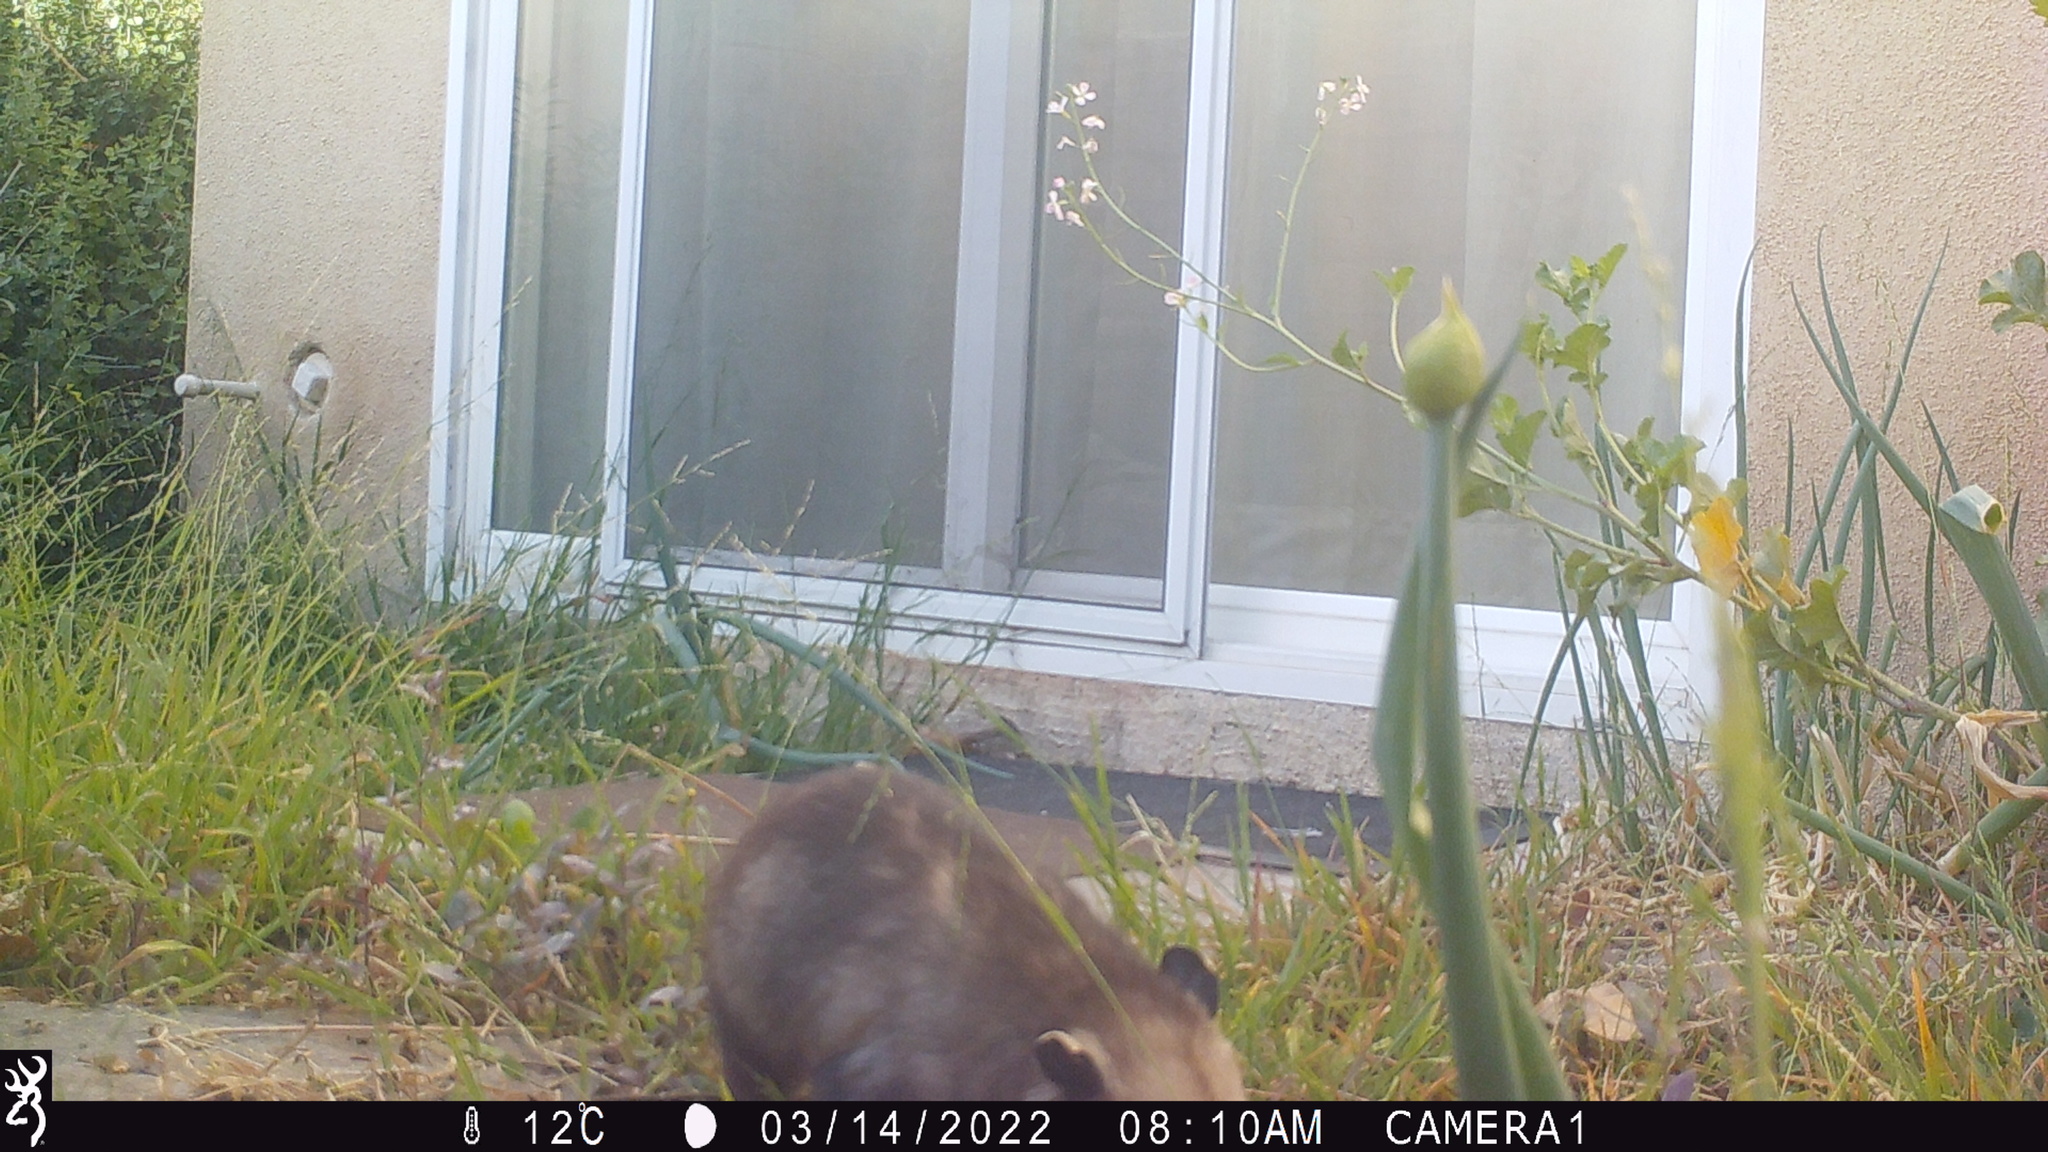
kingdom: Animalia
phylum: Chordata
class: Mammalia
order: Didelphimorphia
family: Didelphidae
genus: Didelphis
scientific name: Didelphis virginiana
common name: Virginia opossum
